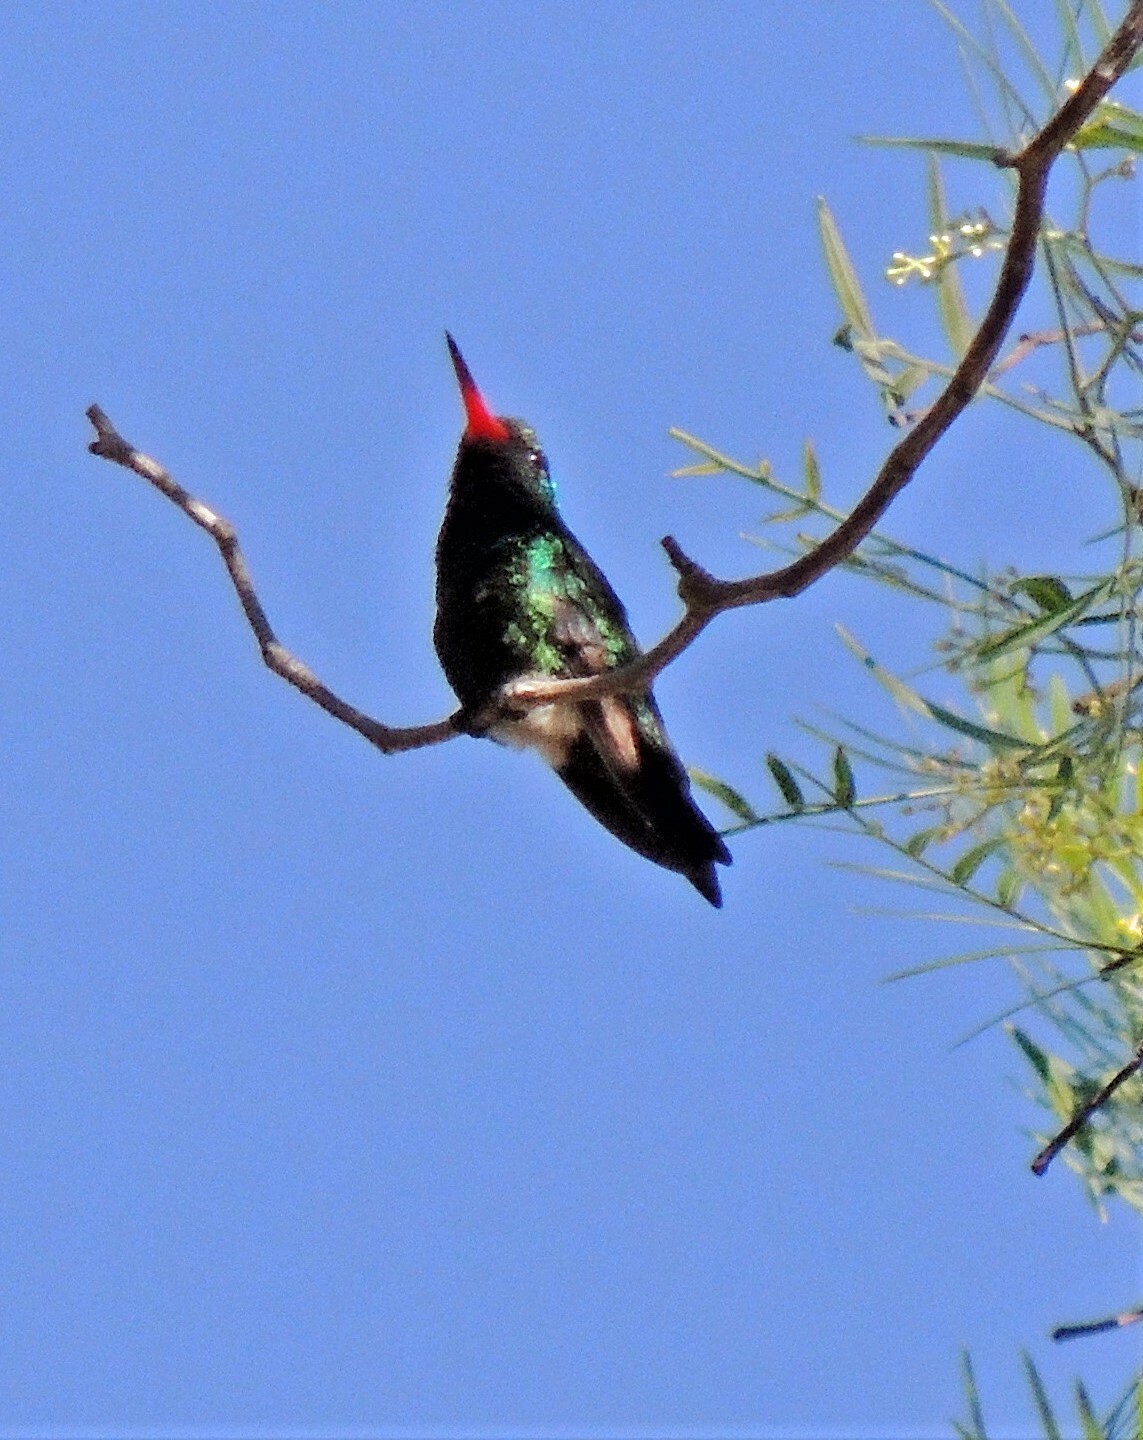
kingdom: Animalia
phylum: Chordata
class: Aves
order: Apodiformes
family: Trochilidae
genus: Chlorostilbon
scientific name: Chlorostilbon lucidus
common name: Glittering-bellied emerald
